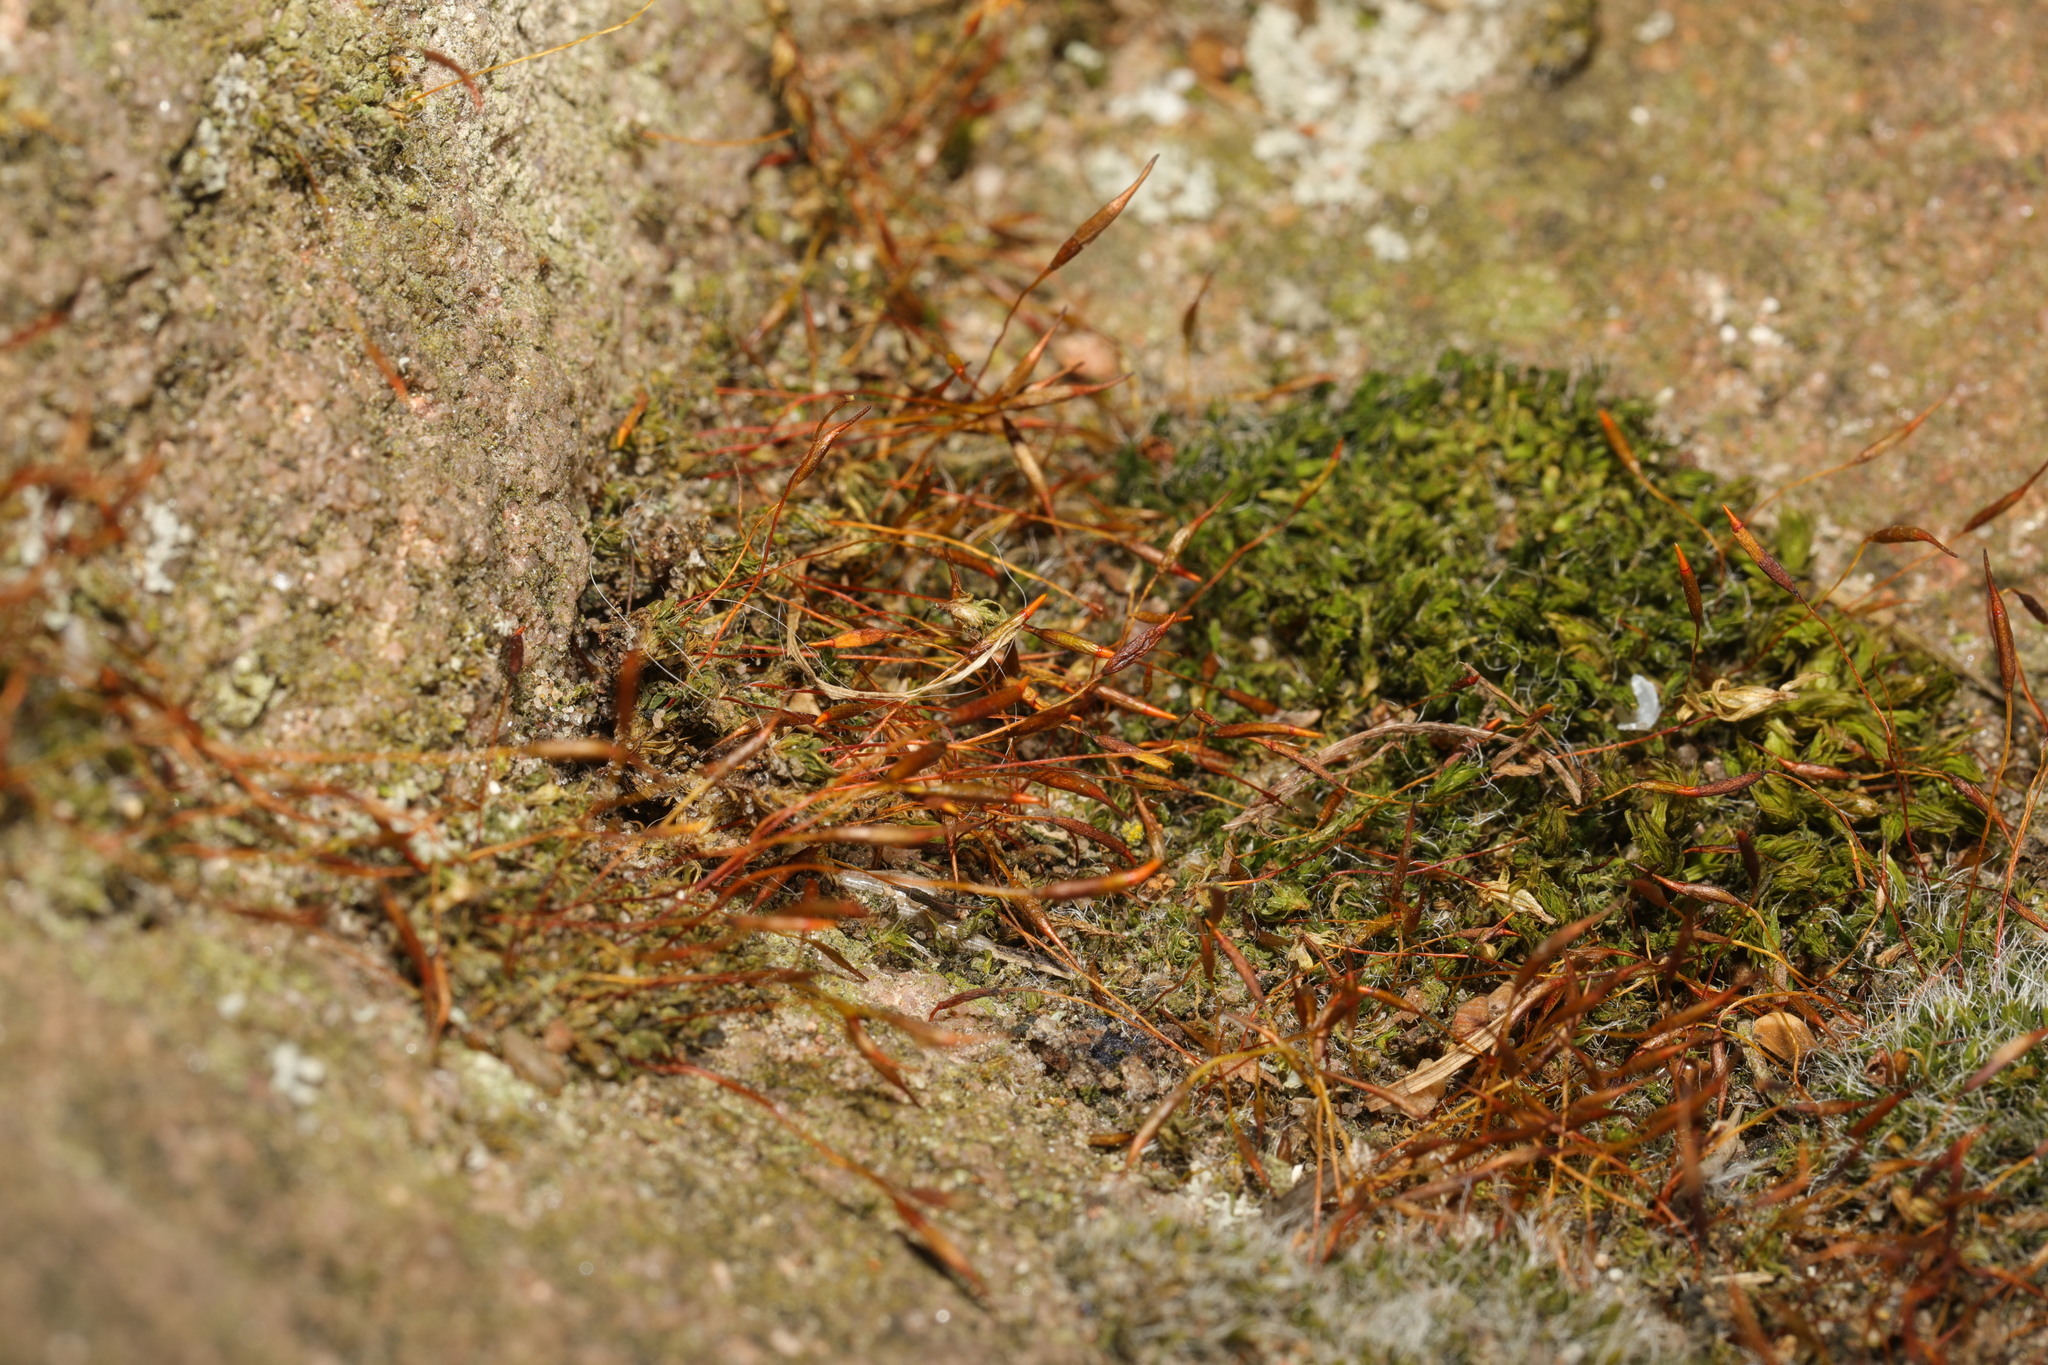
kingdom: Plantae
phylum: Bryophyta
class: Bryopsida
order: Pottiales
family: Pottiaceae
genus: Tortula
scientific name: Tortula muralis
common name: Wall screw-moss
